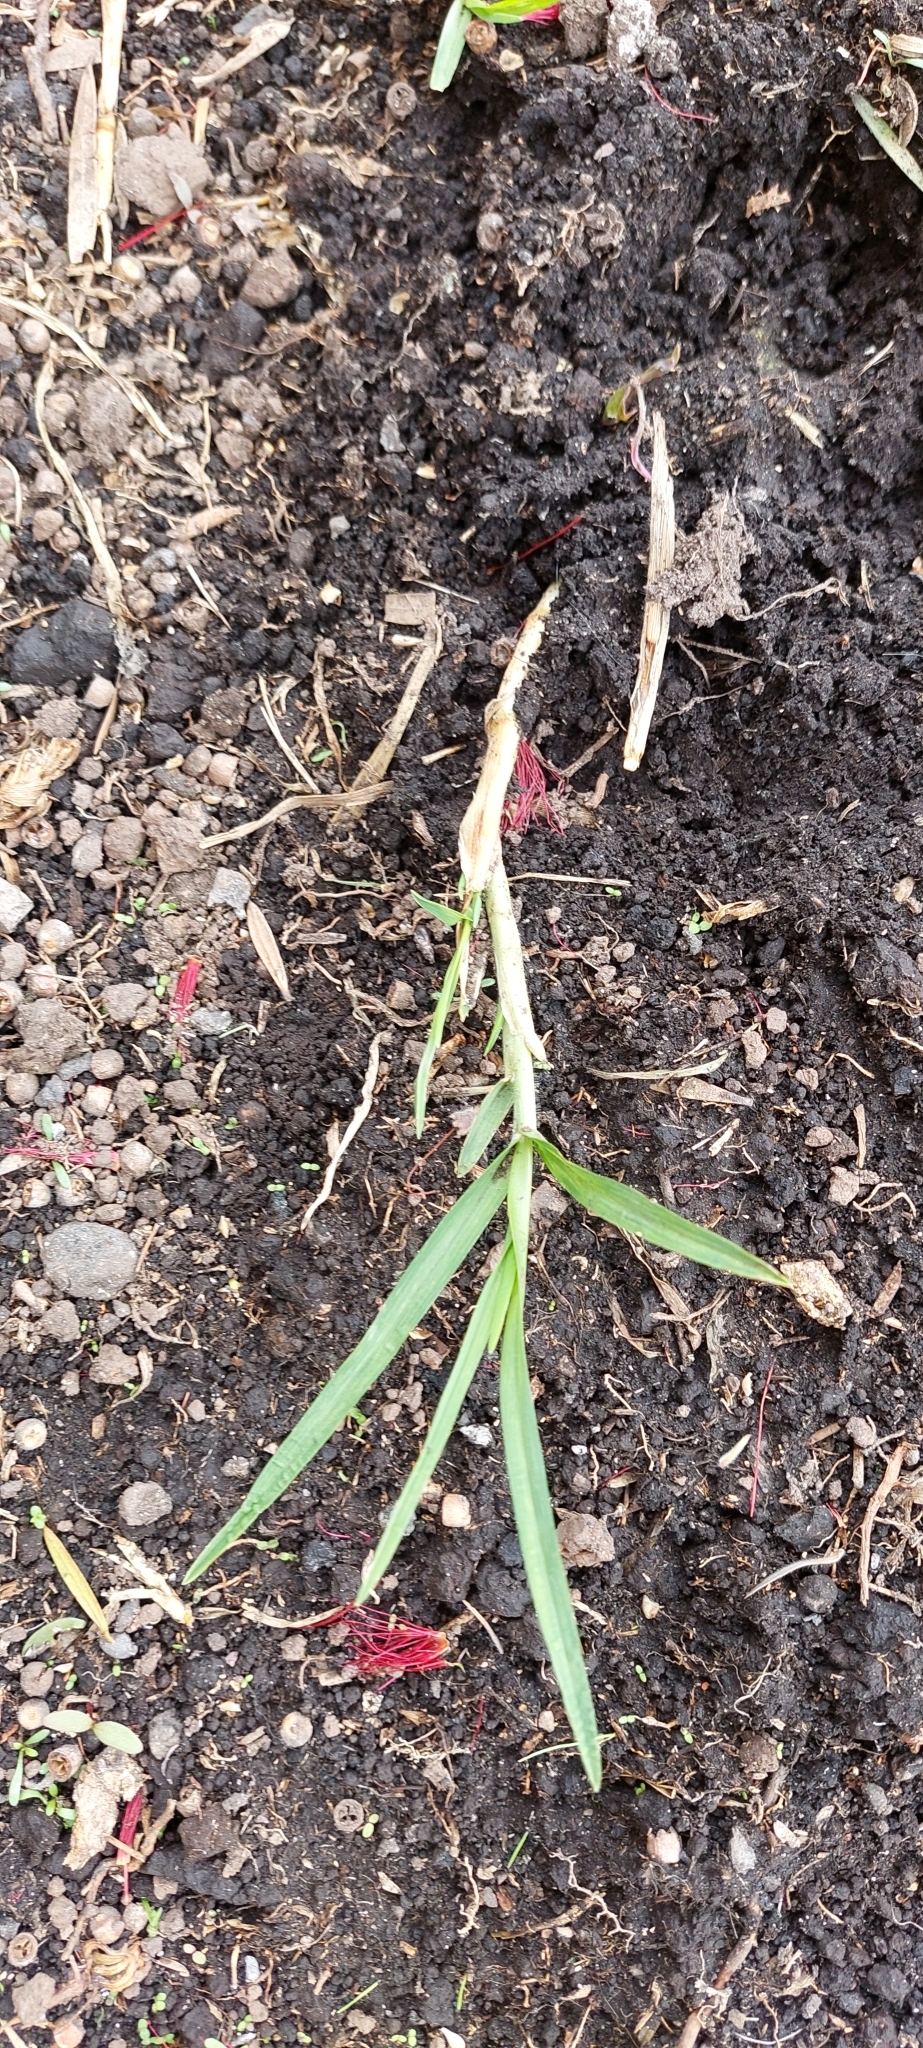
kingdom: Plantae
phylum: Tracheophyta
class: Liliopsida
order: Poales
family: Poaceae
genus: Cenchrus
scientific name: Cenchrus clandestinus
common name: Kikuyugrass
